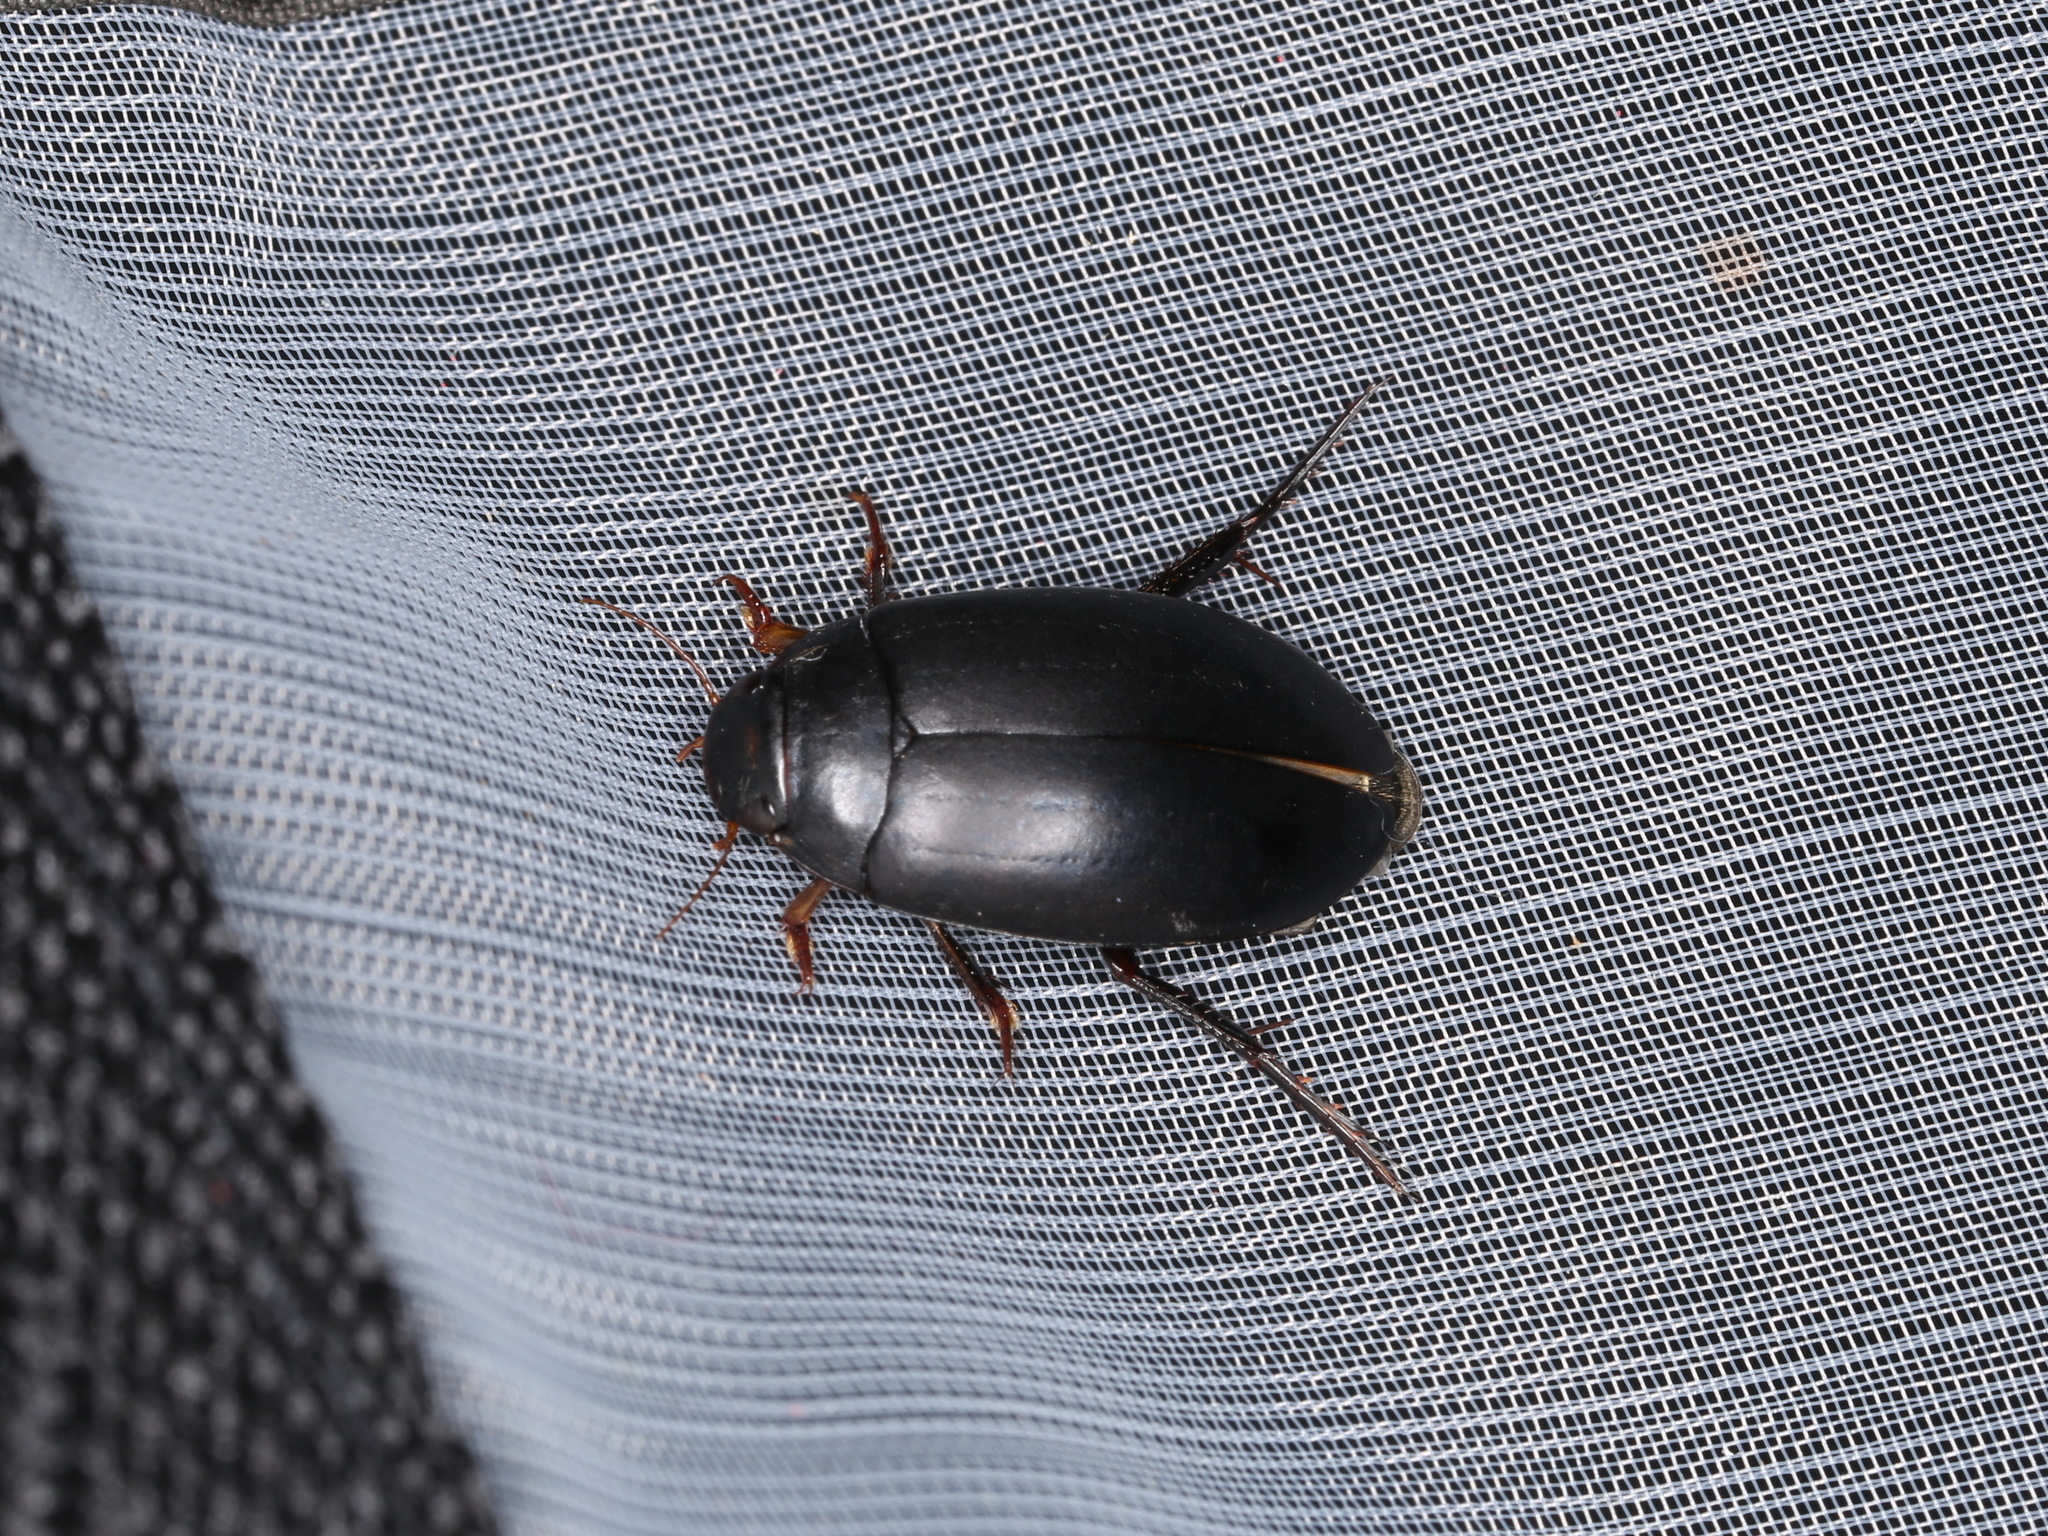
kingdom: Animalia
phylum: Arthropoda
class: Insecta
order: Coleoptera
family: Dytiscidae
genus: Nartus
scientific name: Nartus grapii
